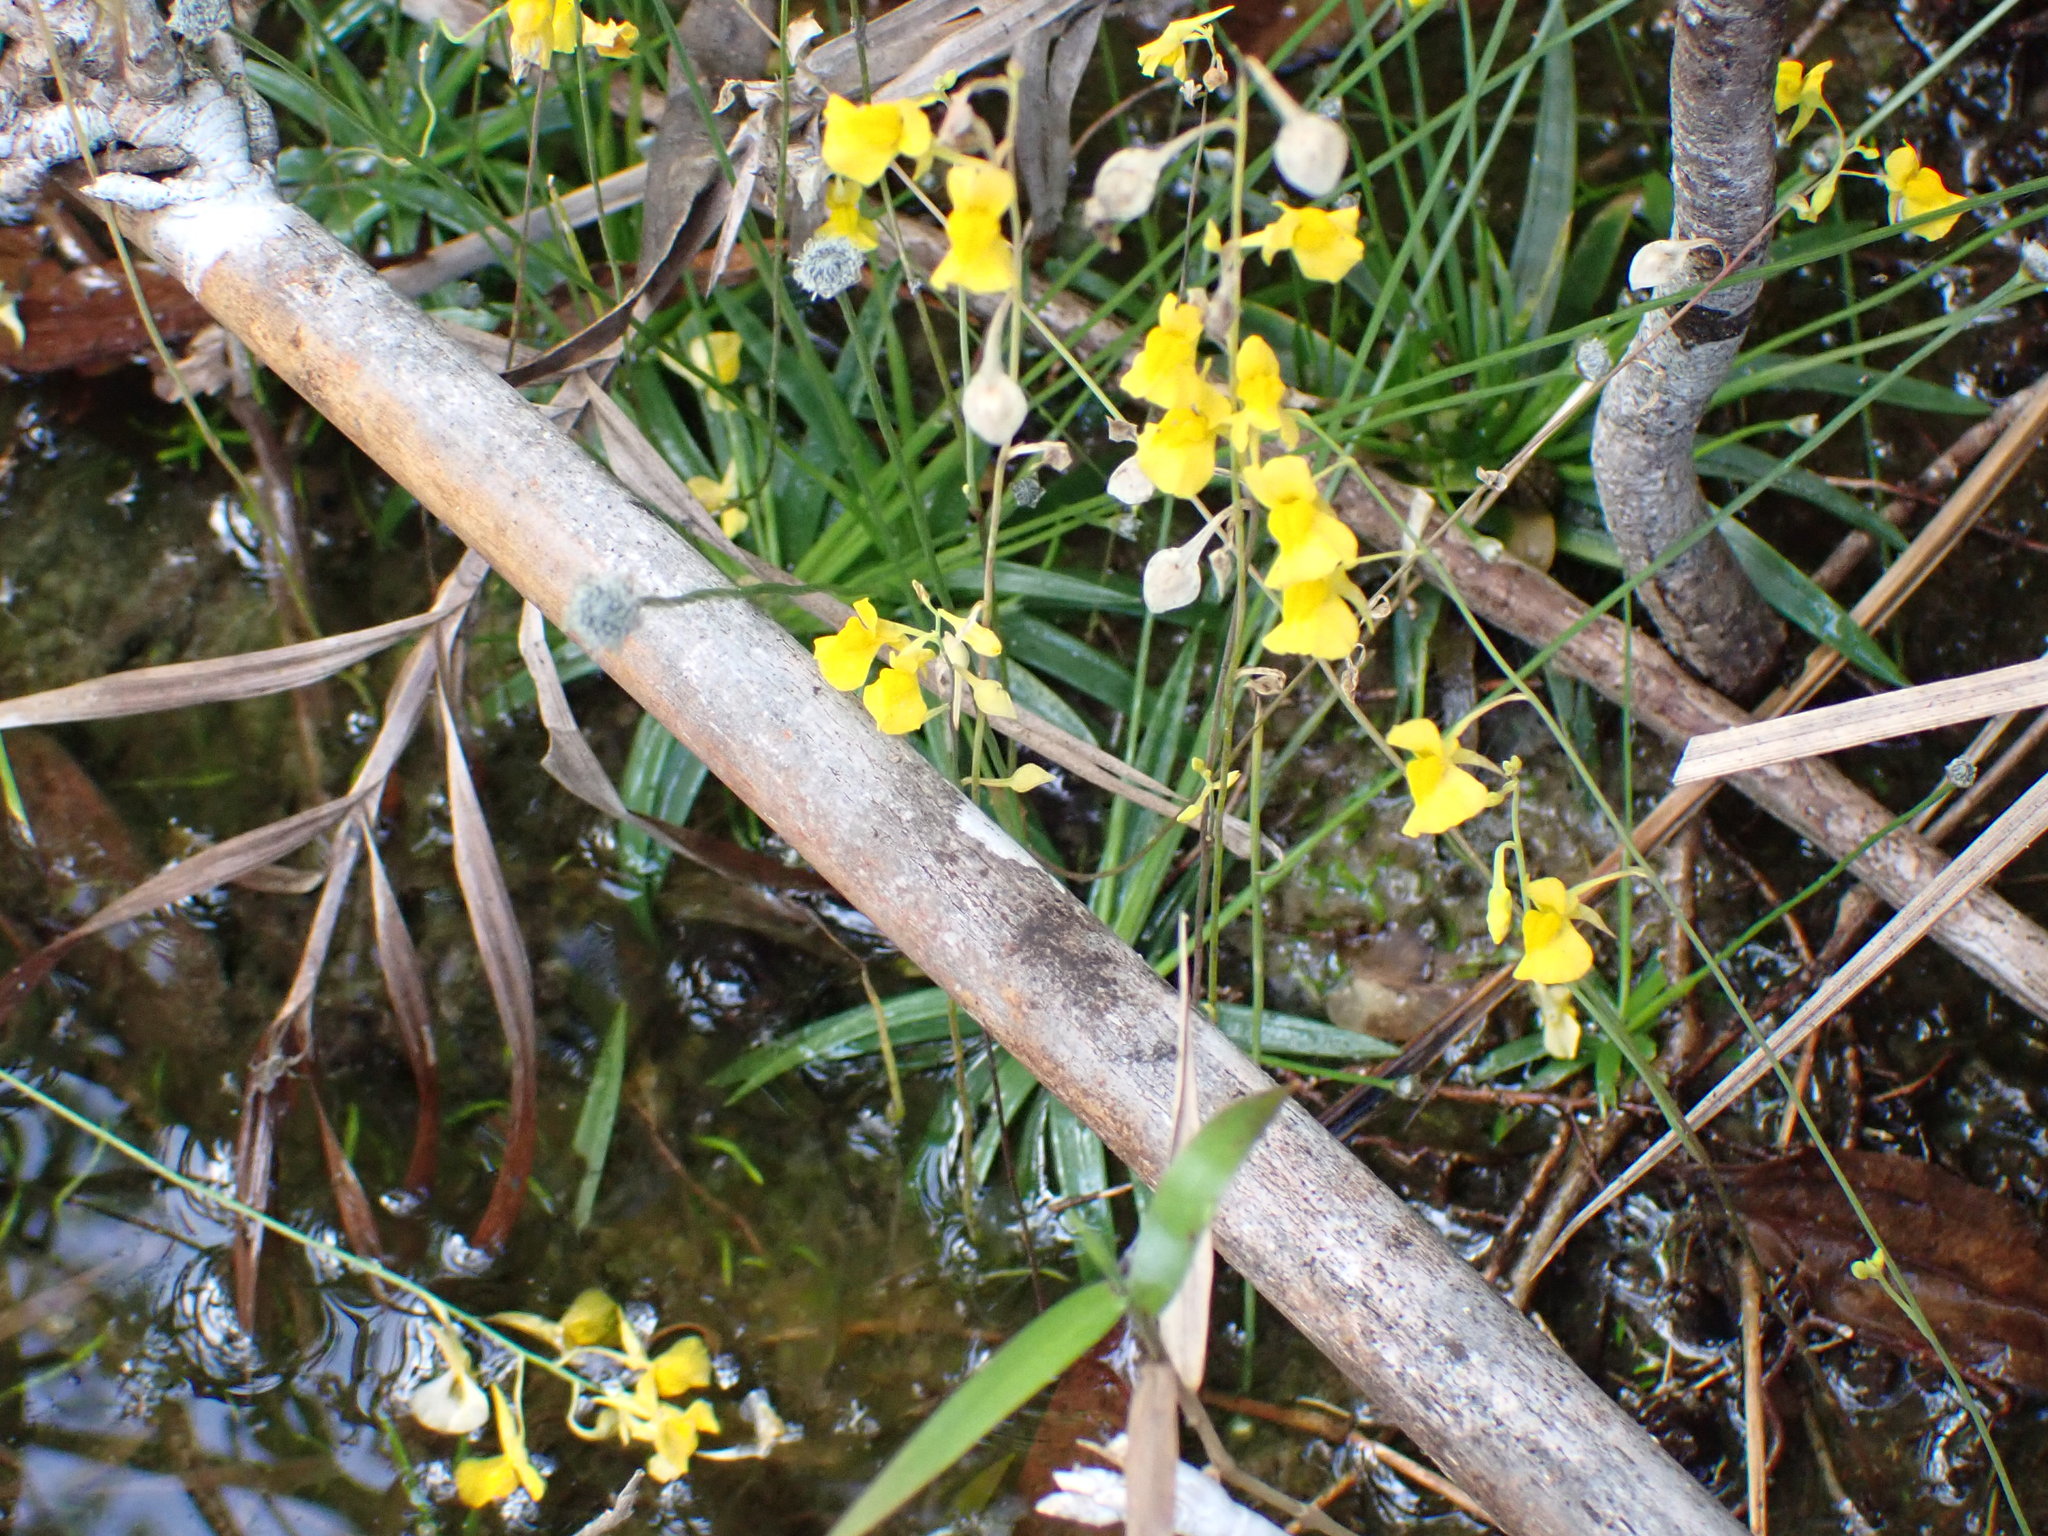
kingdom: Plantae
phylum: Tracheophyta
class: Magnoliopsida
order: Lamiales
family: Lentibulariaceae
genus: Utricularia
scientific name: Utricularia odorata
